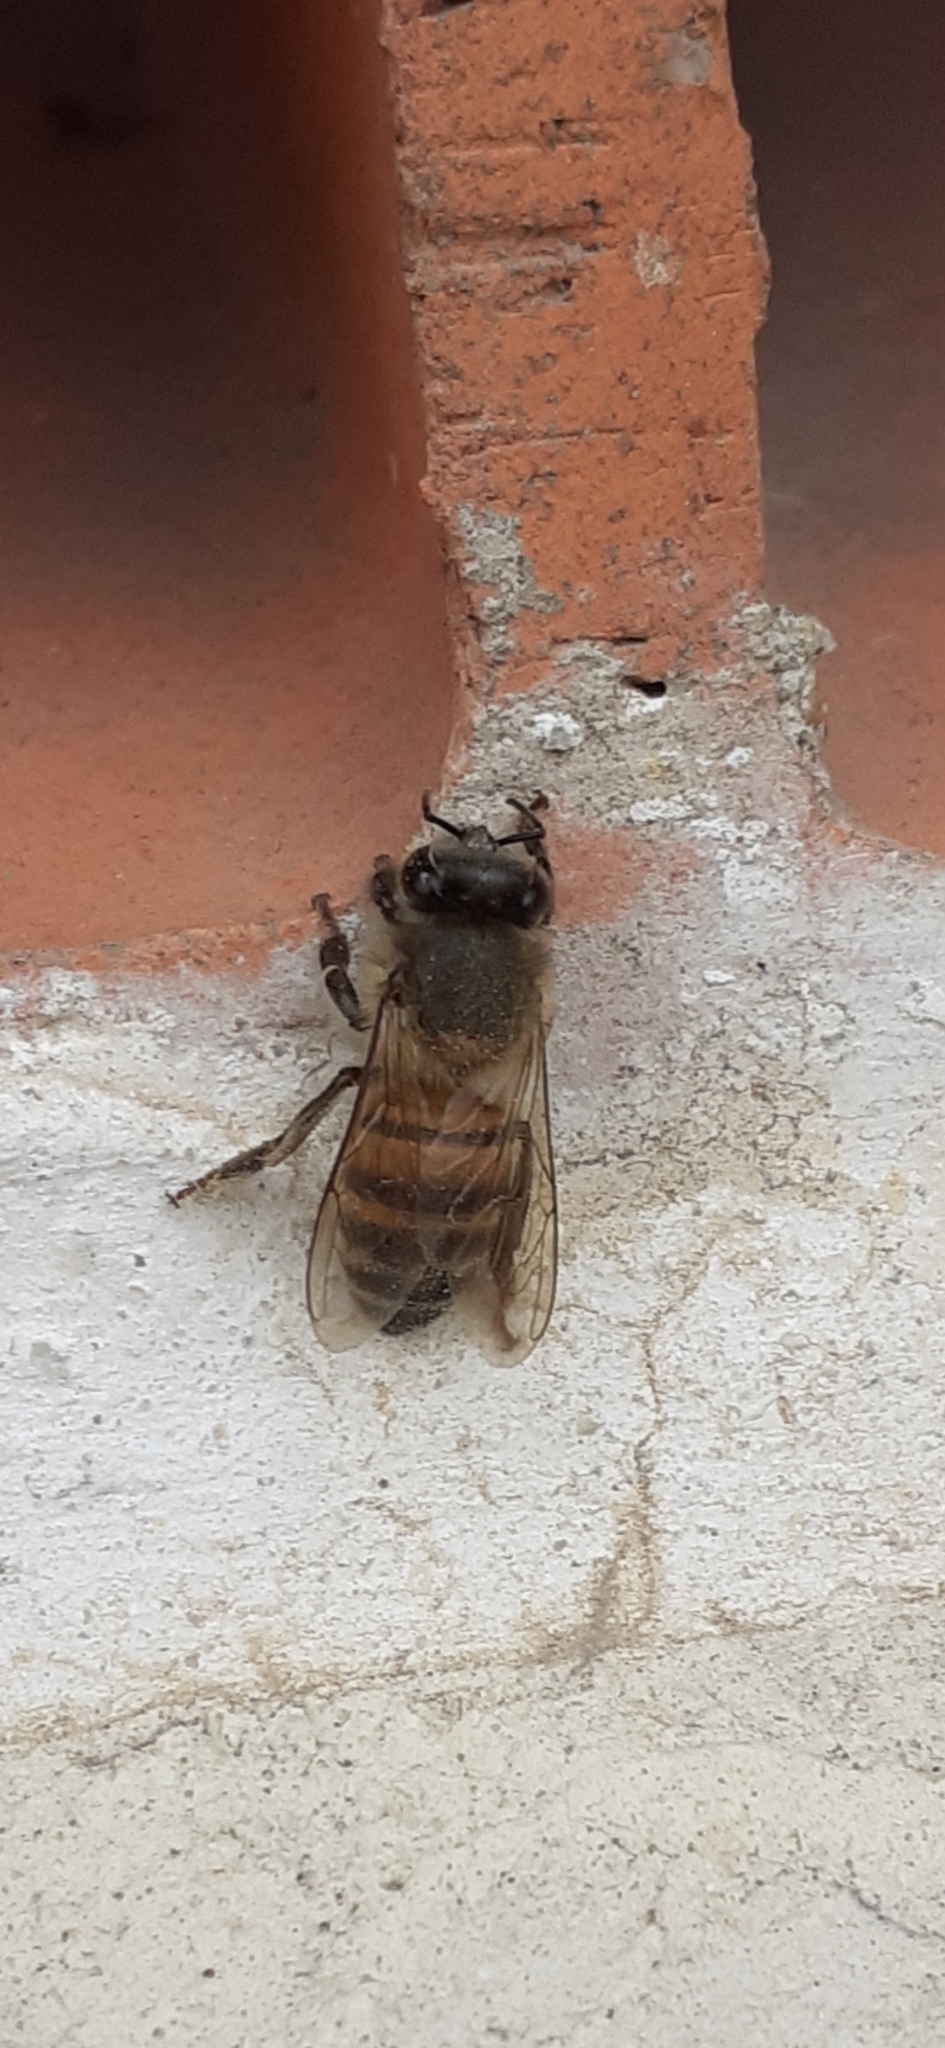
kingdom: Animalia
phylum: Arthropoda
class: Insecta
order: Hymenoptera
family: Apidae
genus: Apis
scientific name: Apis mellifera
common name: Honey bee
